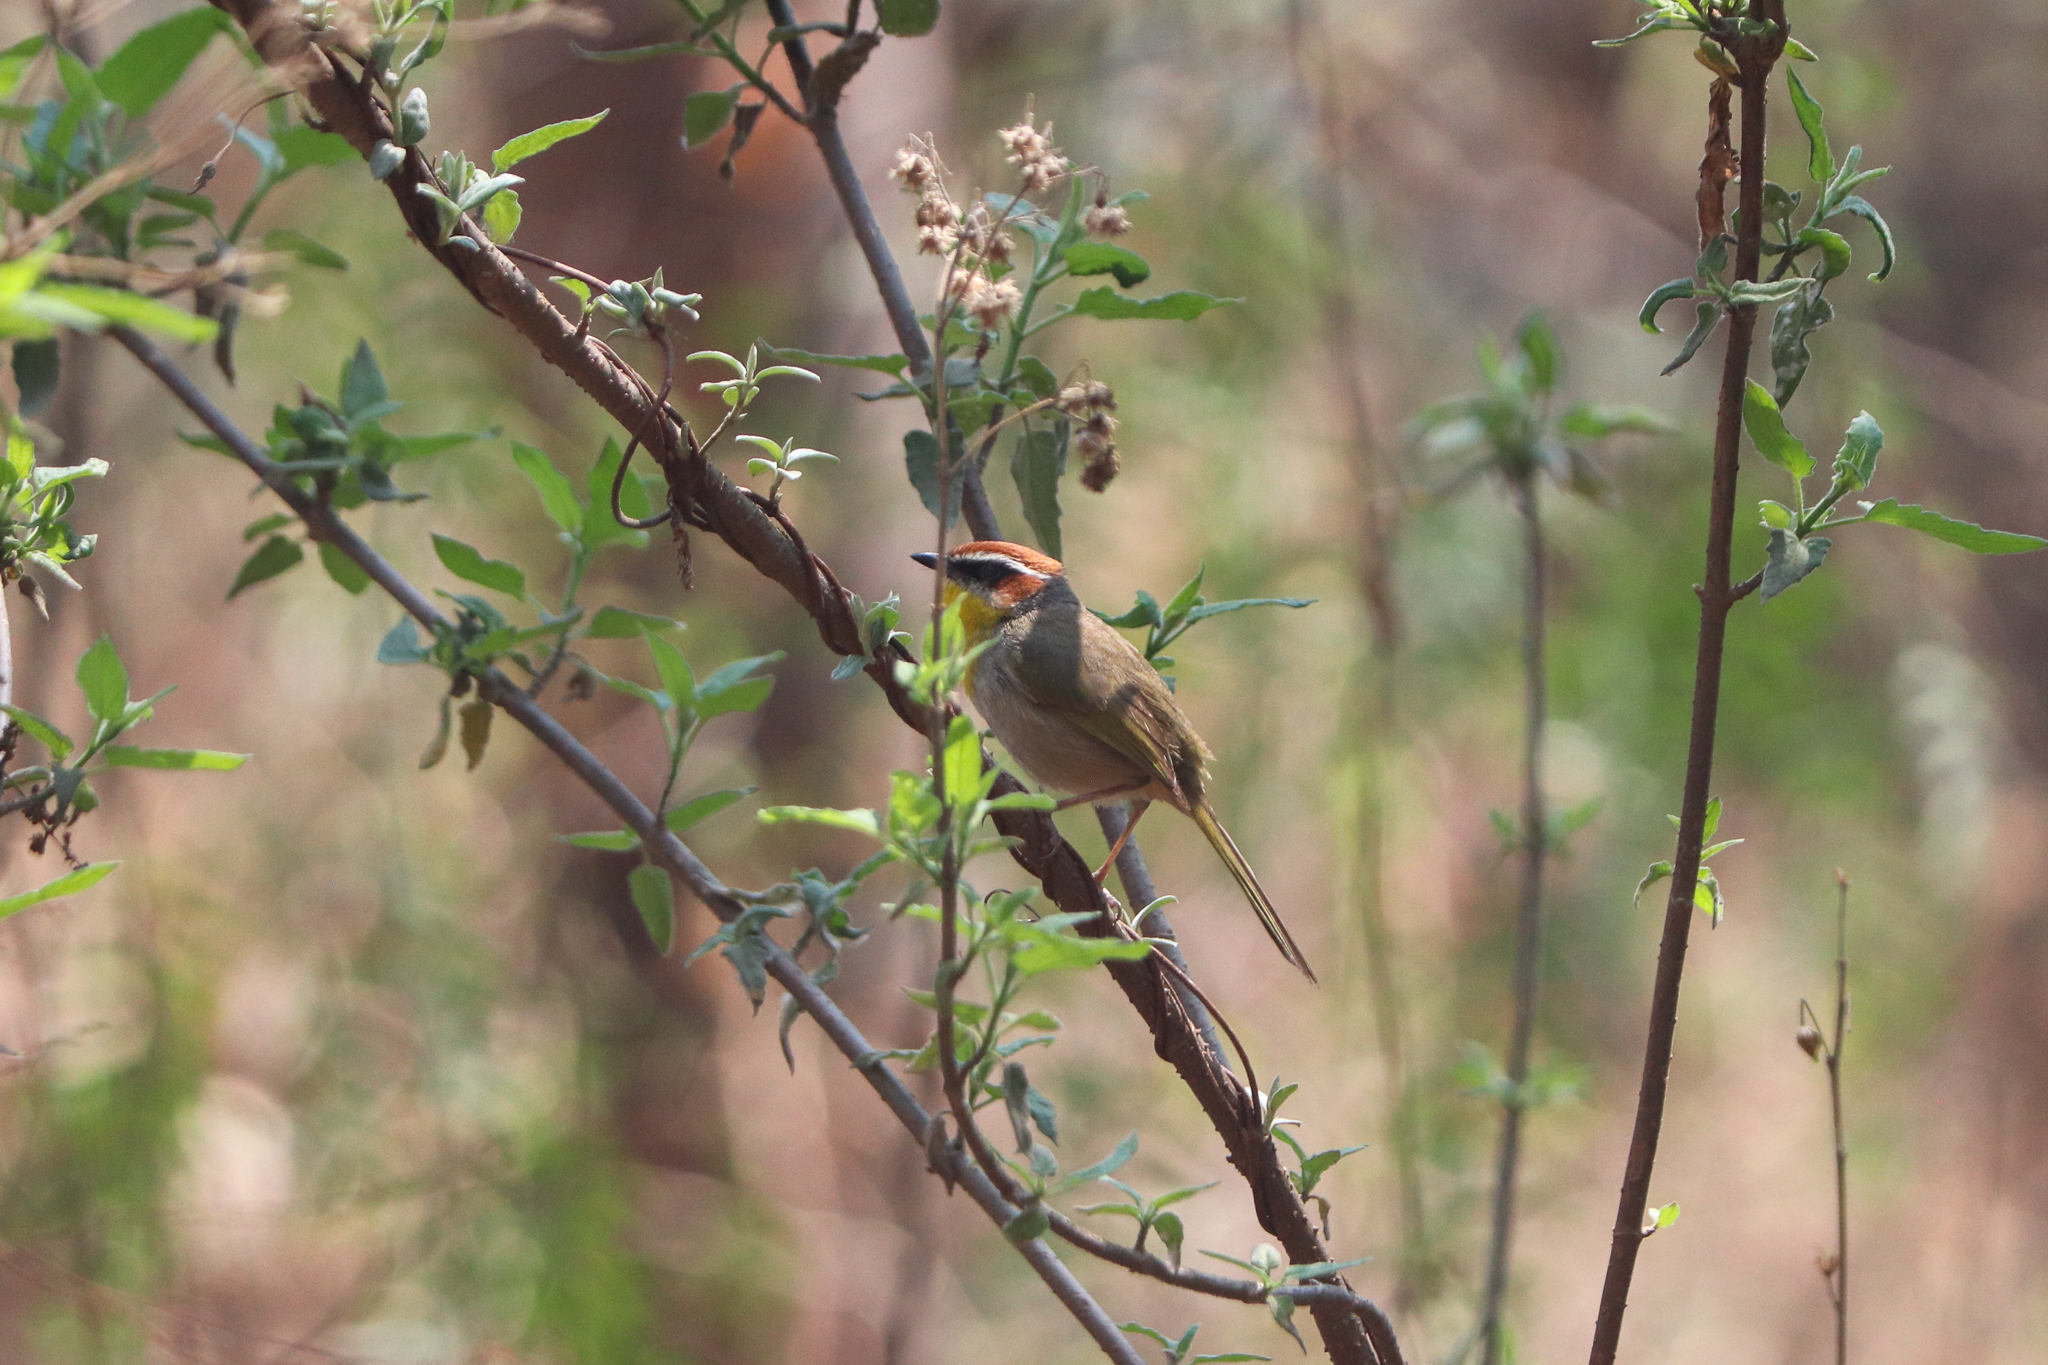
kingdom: Animalia
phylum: Chordata
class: Aves
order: Passeriformes
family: Parulidae
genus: Basileuterus
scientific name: Basileuterus rufifrons
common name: Rufous-capped warbler
